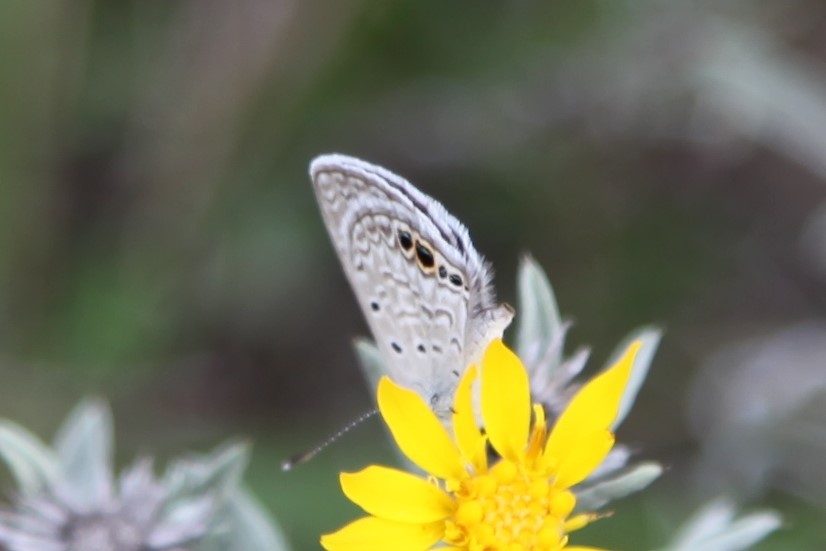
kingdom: Animalia
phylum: Arthropoda
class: Insecta
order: Lepidoptera
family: Lycaenidae
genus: Hemiargus
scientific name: Hemiargus ceraunus
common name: Ceraunus blue
